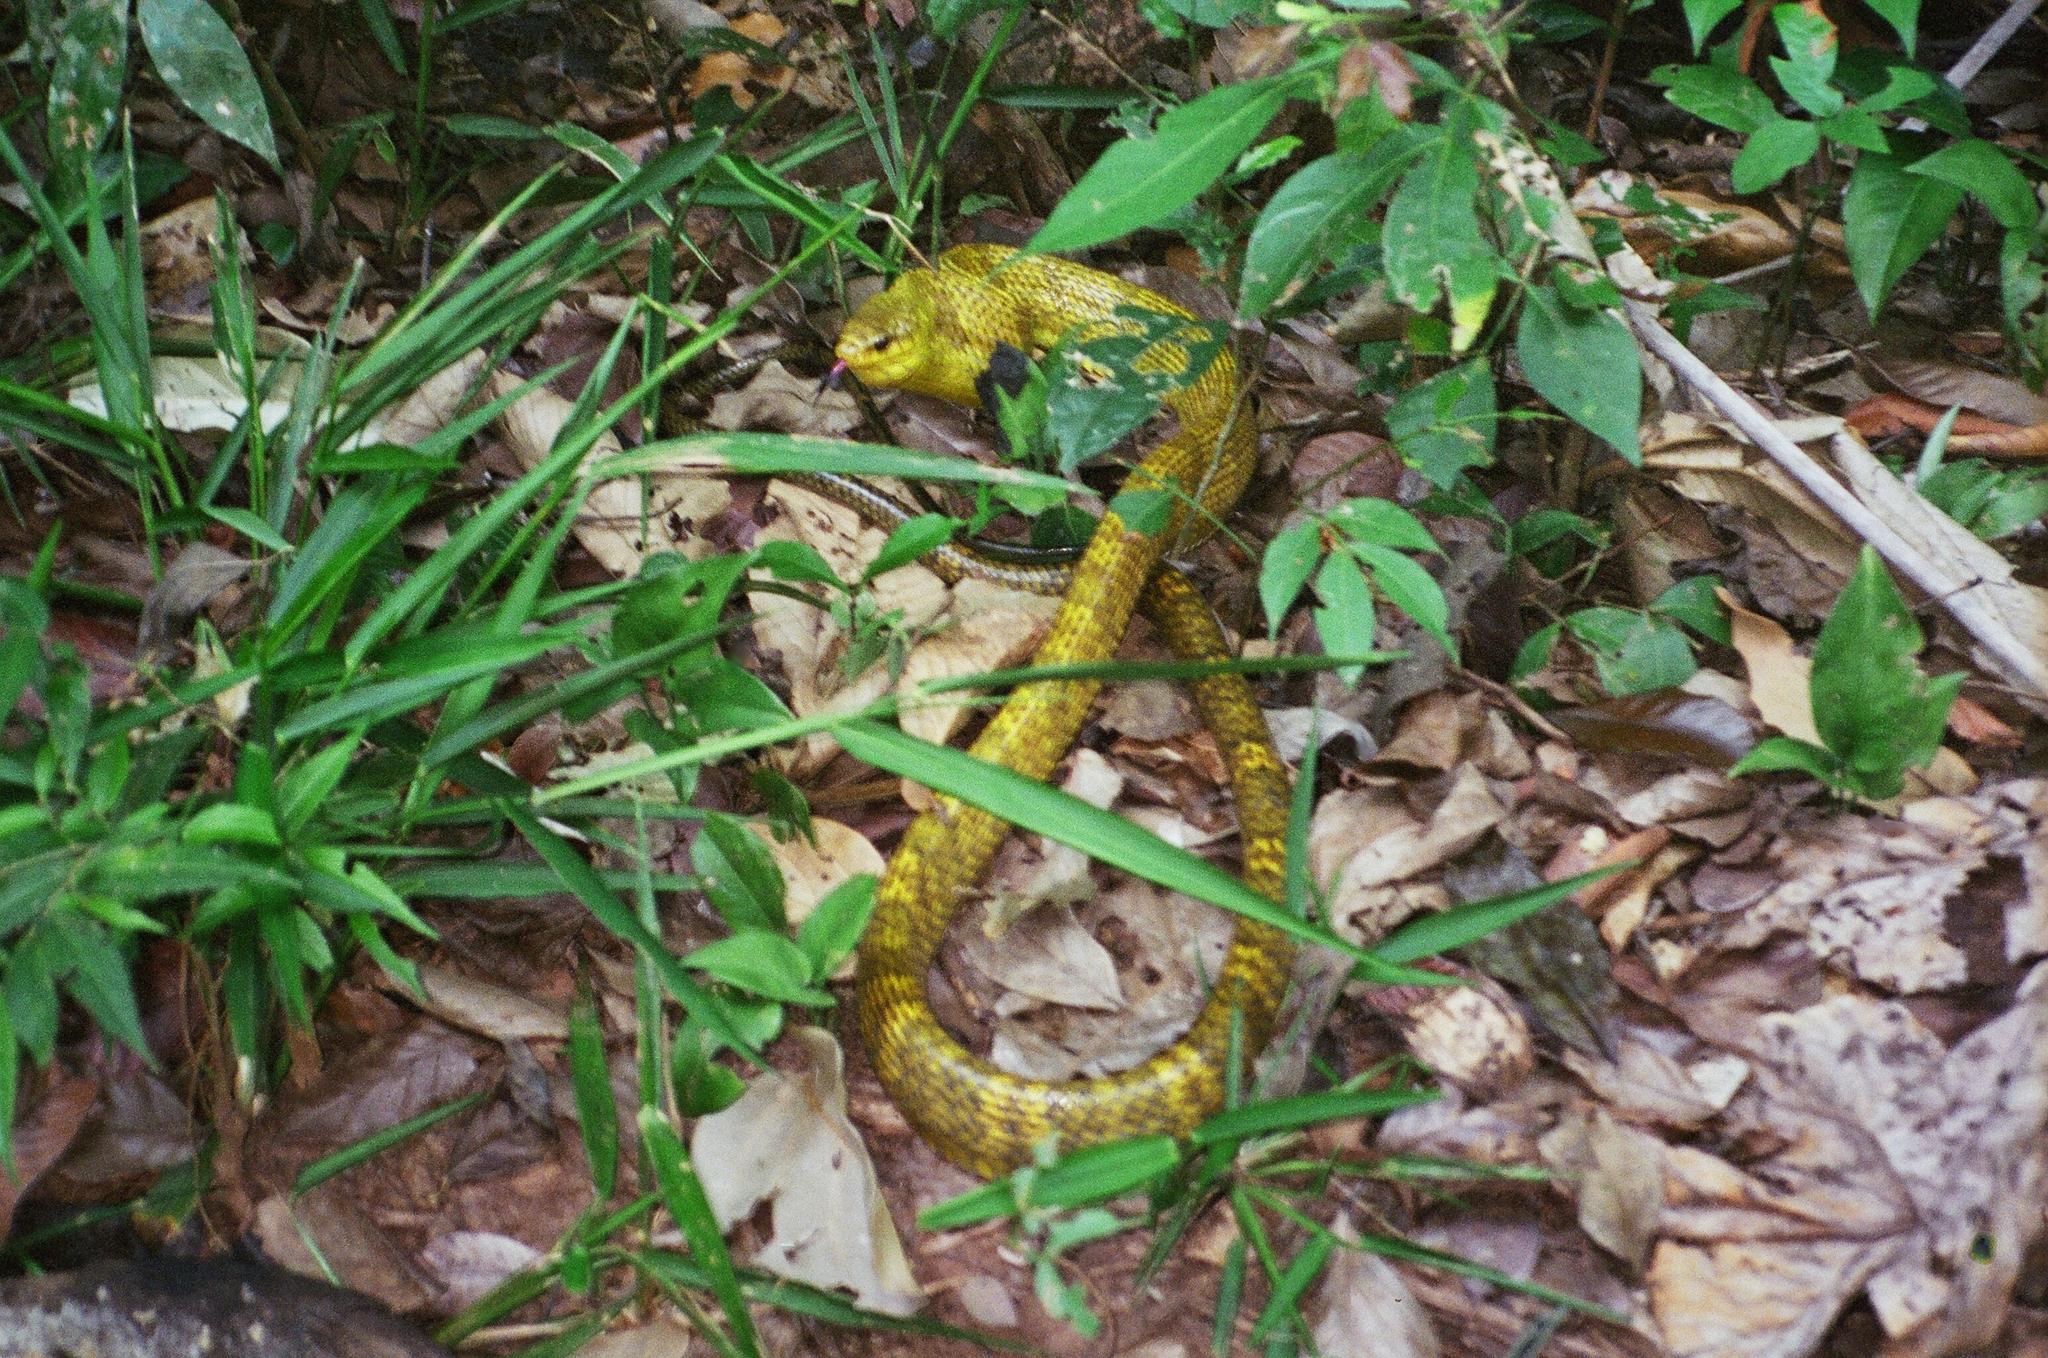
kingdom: Animalia
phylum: Chordata
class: Squamata
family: Colubridae
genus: Spilotes
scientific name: Spilotes sulphureus
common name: Amazon puffing snake
